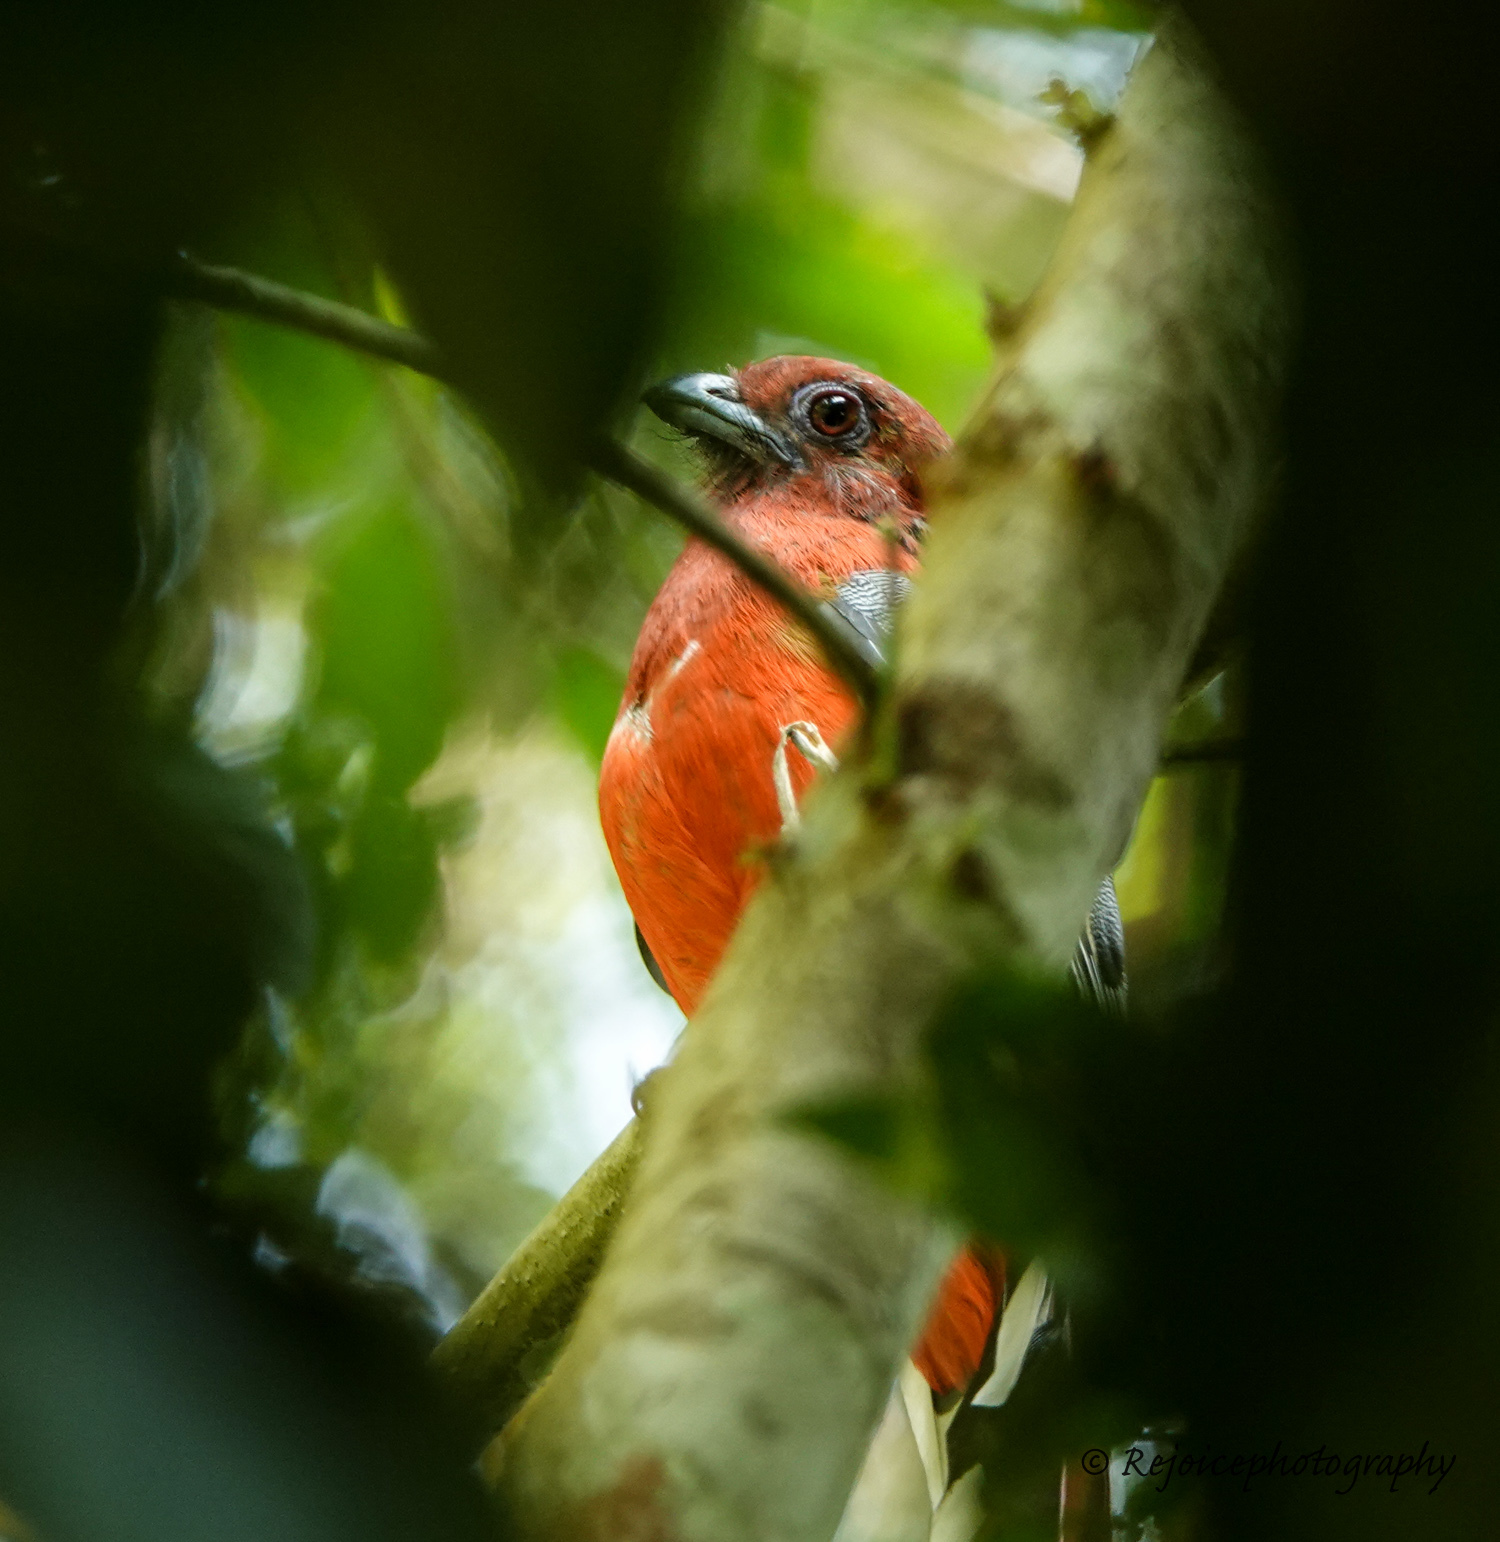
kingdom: Animalia
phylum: Chordata
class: Aves
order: Trogoniformes
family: Trogonidae
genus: Harpactes
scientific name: Harpactes erythrocephalus
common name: Red-headed trogon
